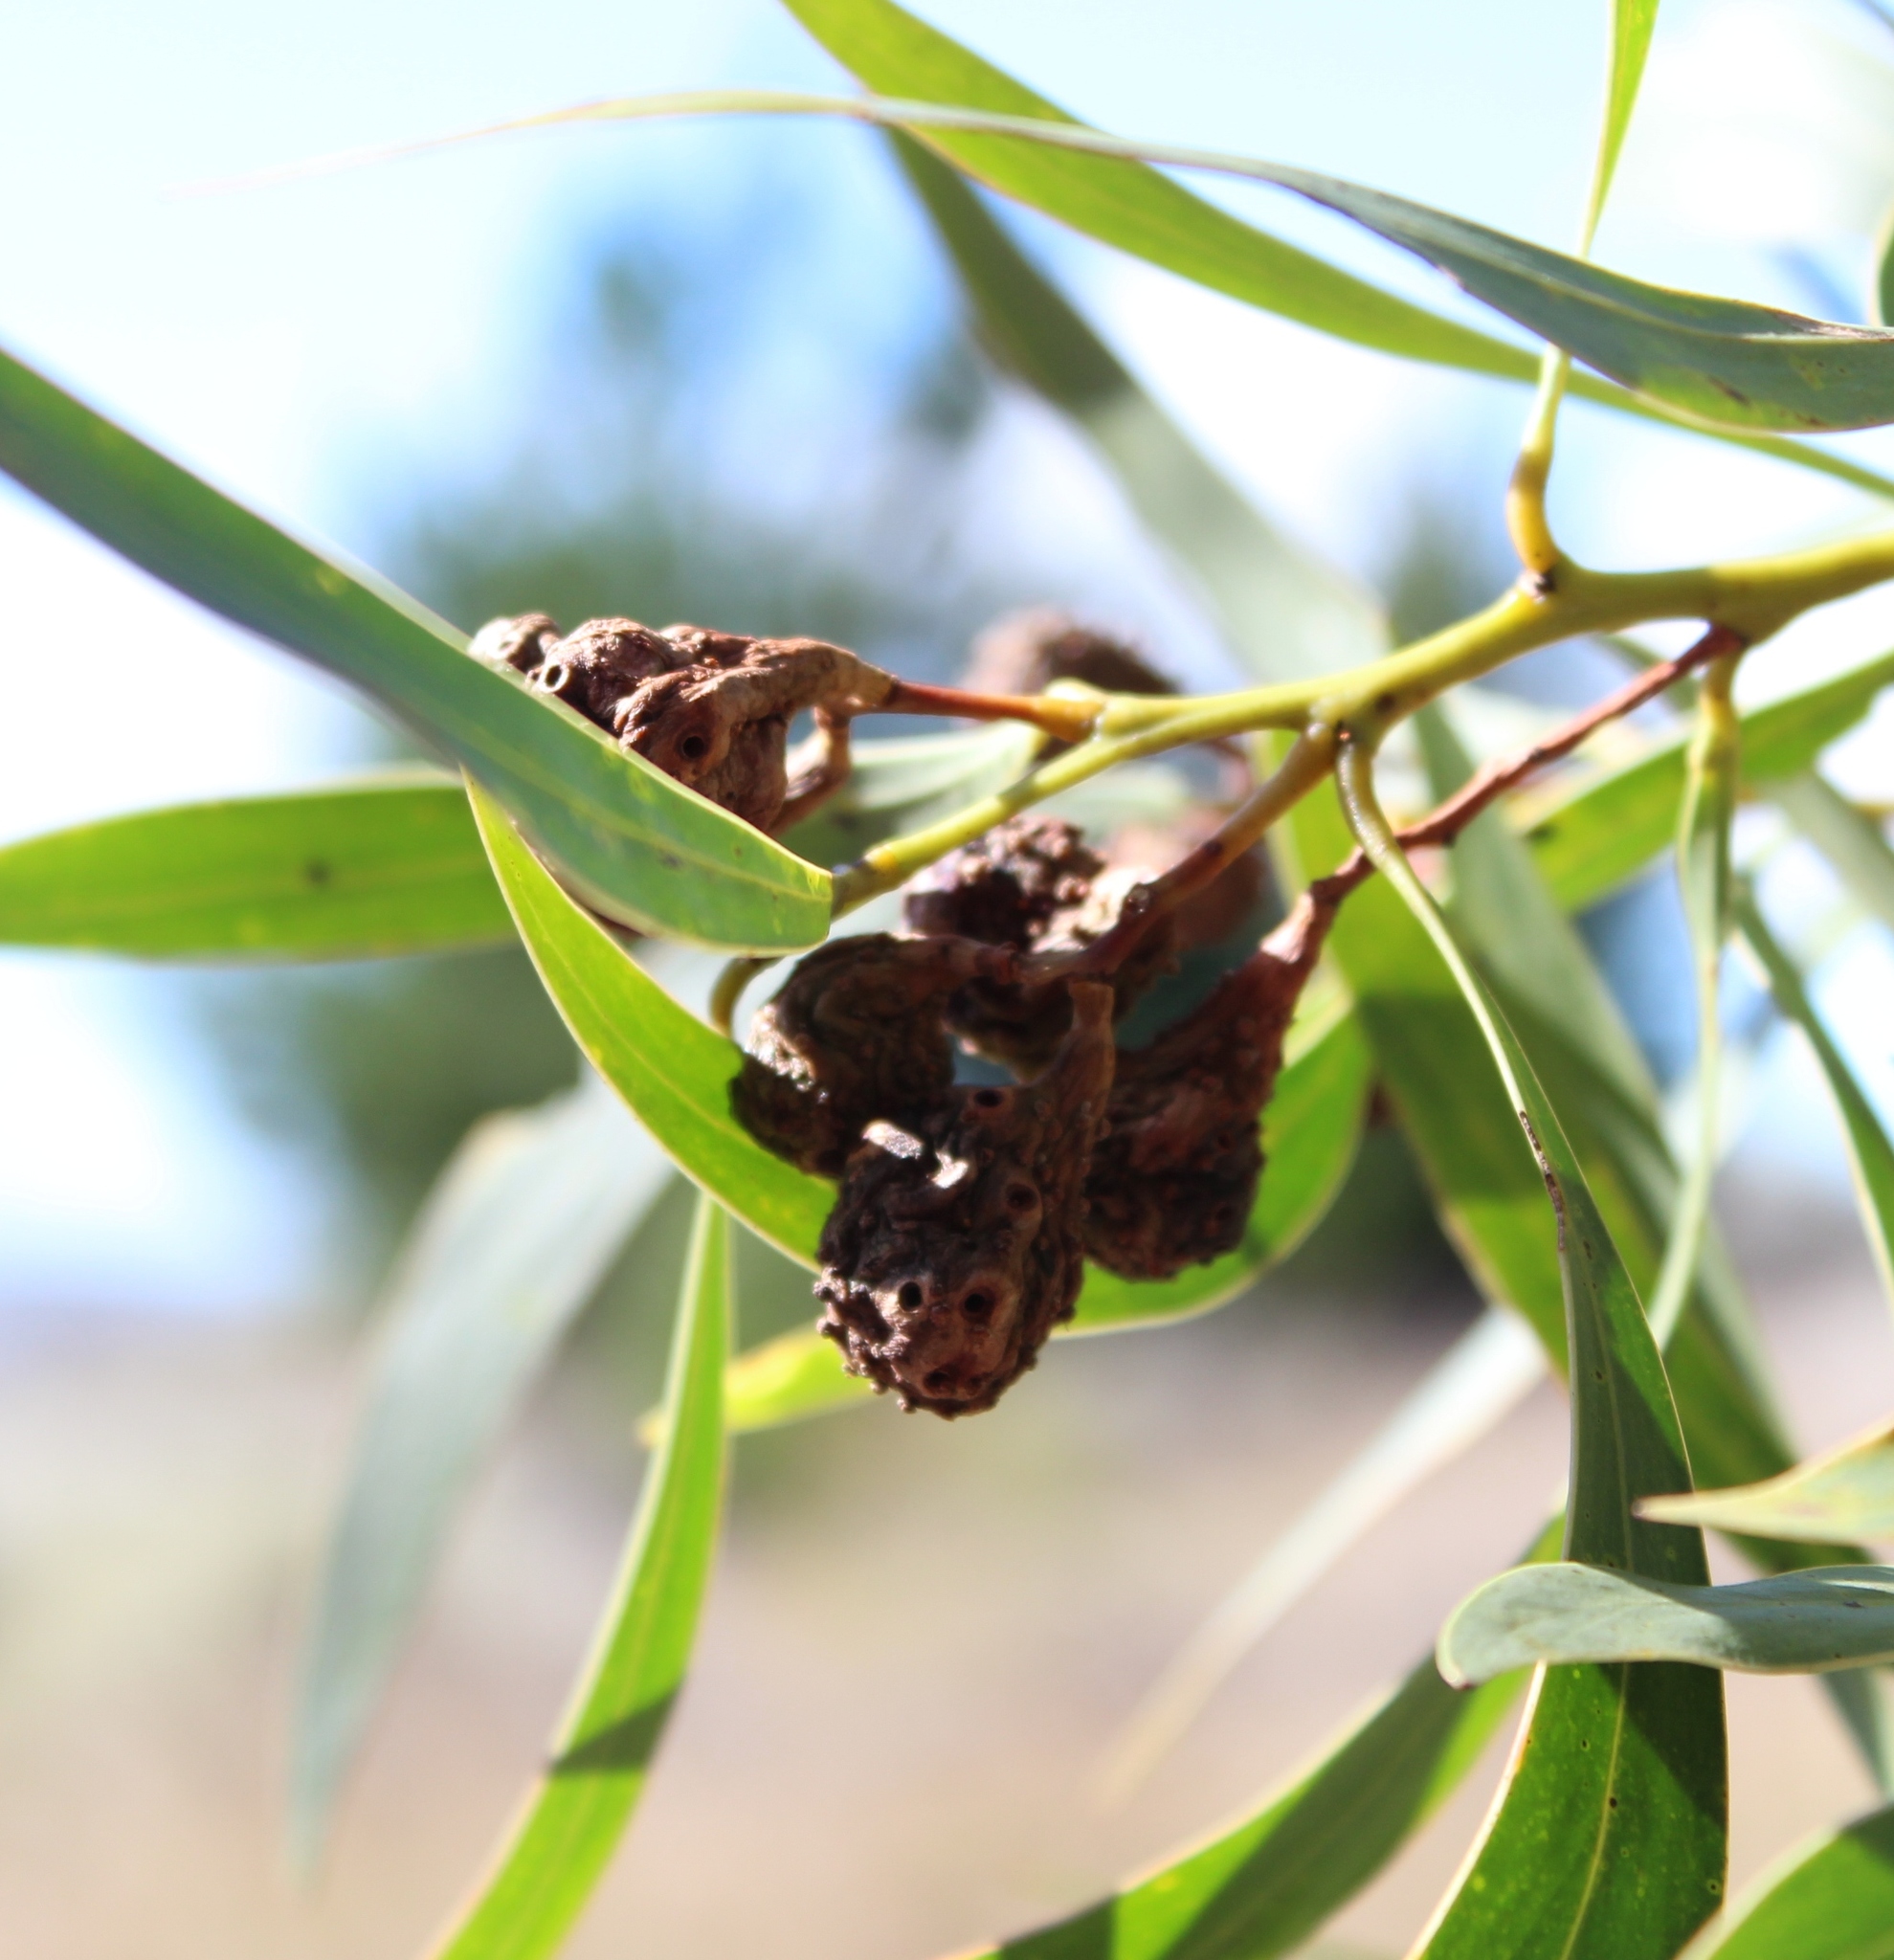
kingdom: Animalia
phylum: Arthropoda
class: Insecta
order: Hymenoptera
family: Pteromalidae
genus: Trichilogaster
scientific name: Trichilogaster signiventris
